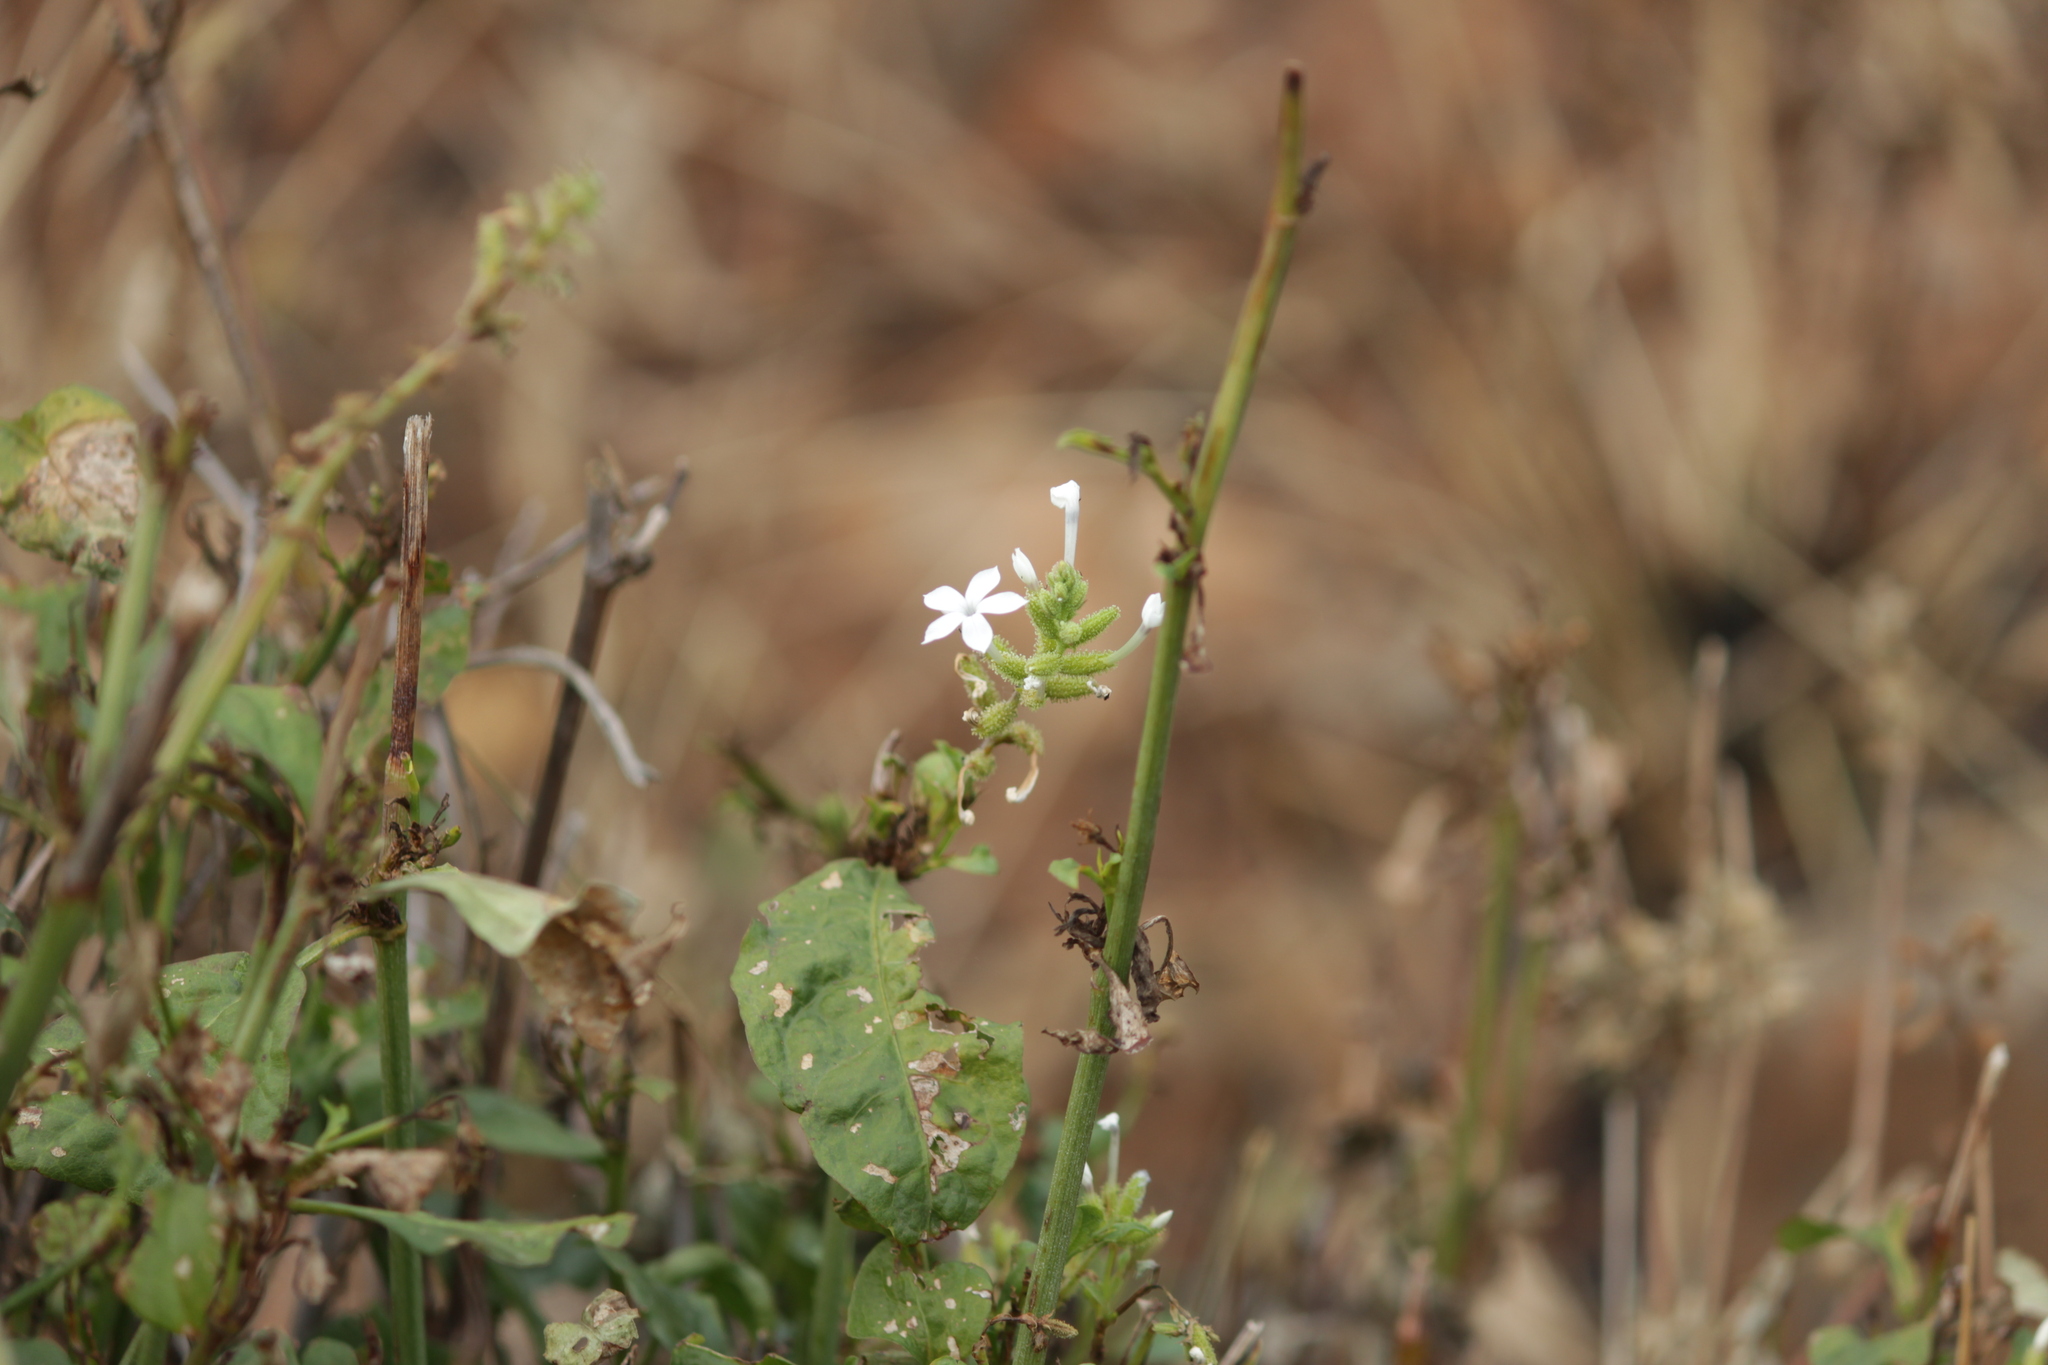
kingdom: Plantae
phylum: Tracheophyta
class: Magnoliopsida
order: Caryophyllales
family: Plumbaginaceae
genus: Plumbago
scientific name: Plumbago zeylanica
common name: Doctorbush
